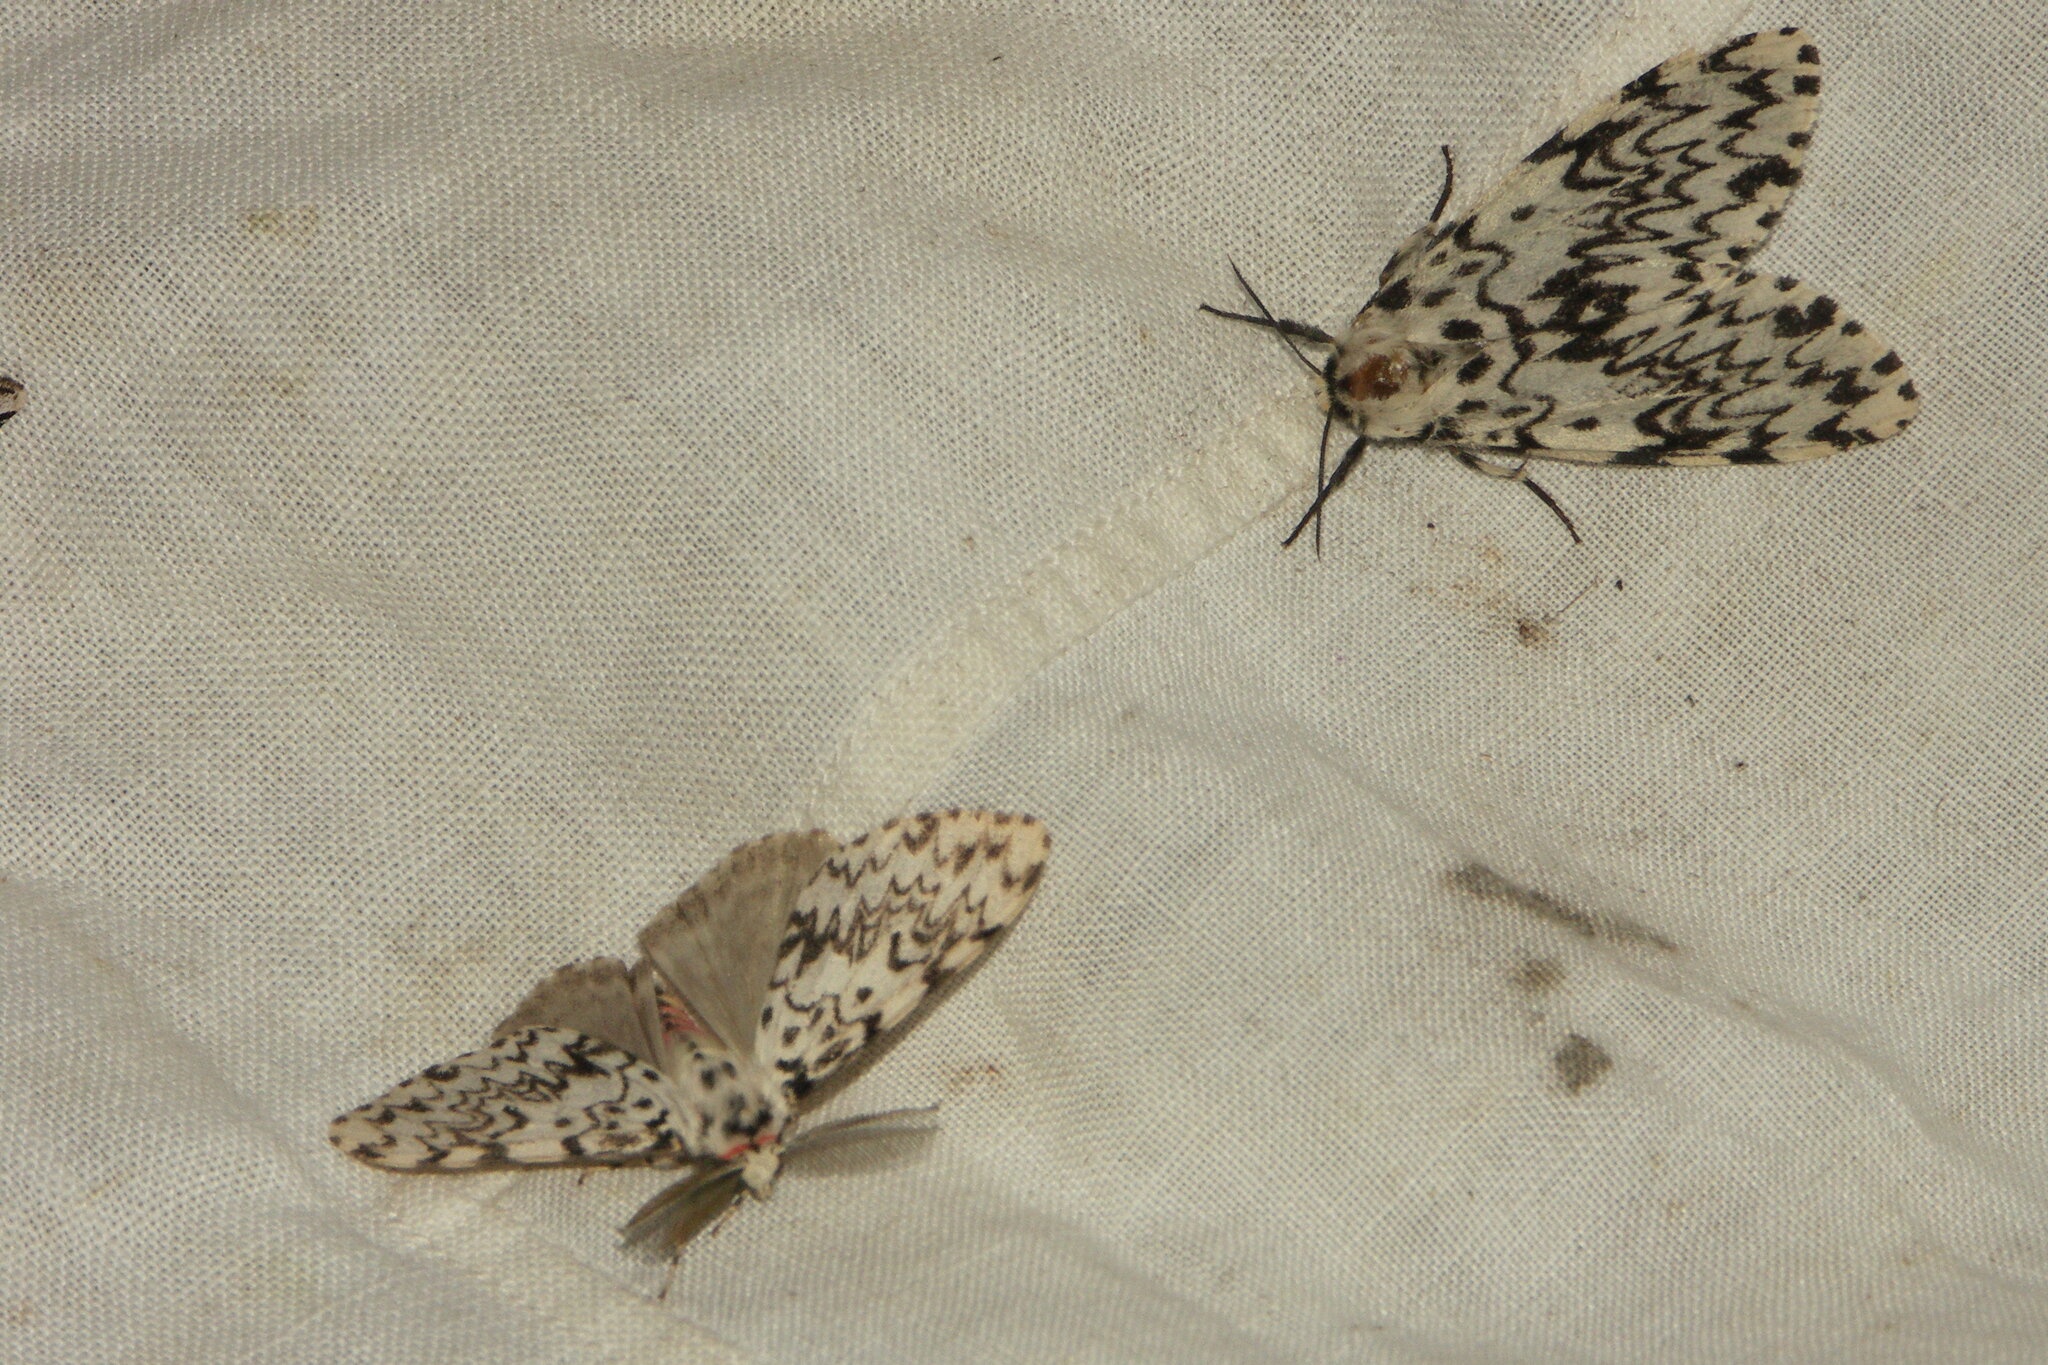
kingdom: Animalia
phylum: Arthropoda
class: Insecta
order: Lepidoptera
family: Erebidae
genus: Lymantria
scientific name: Lymantria monacha
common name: Black arches
